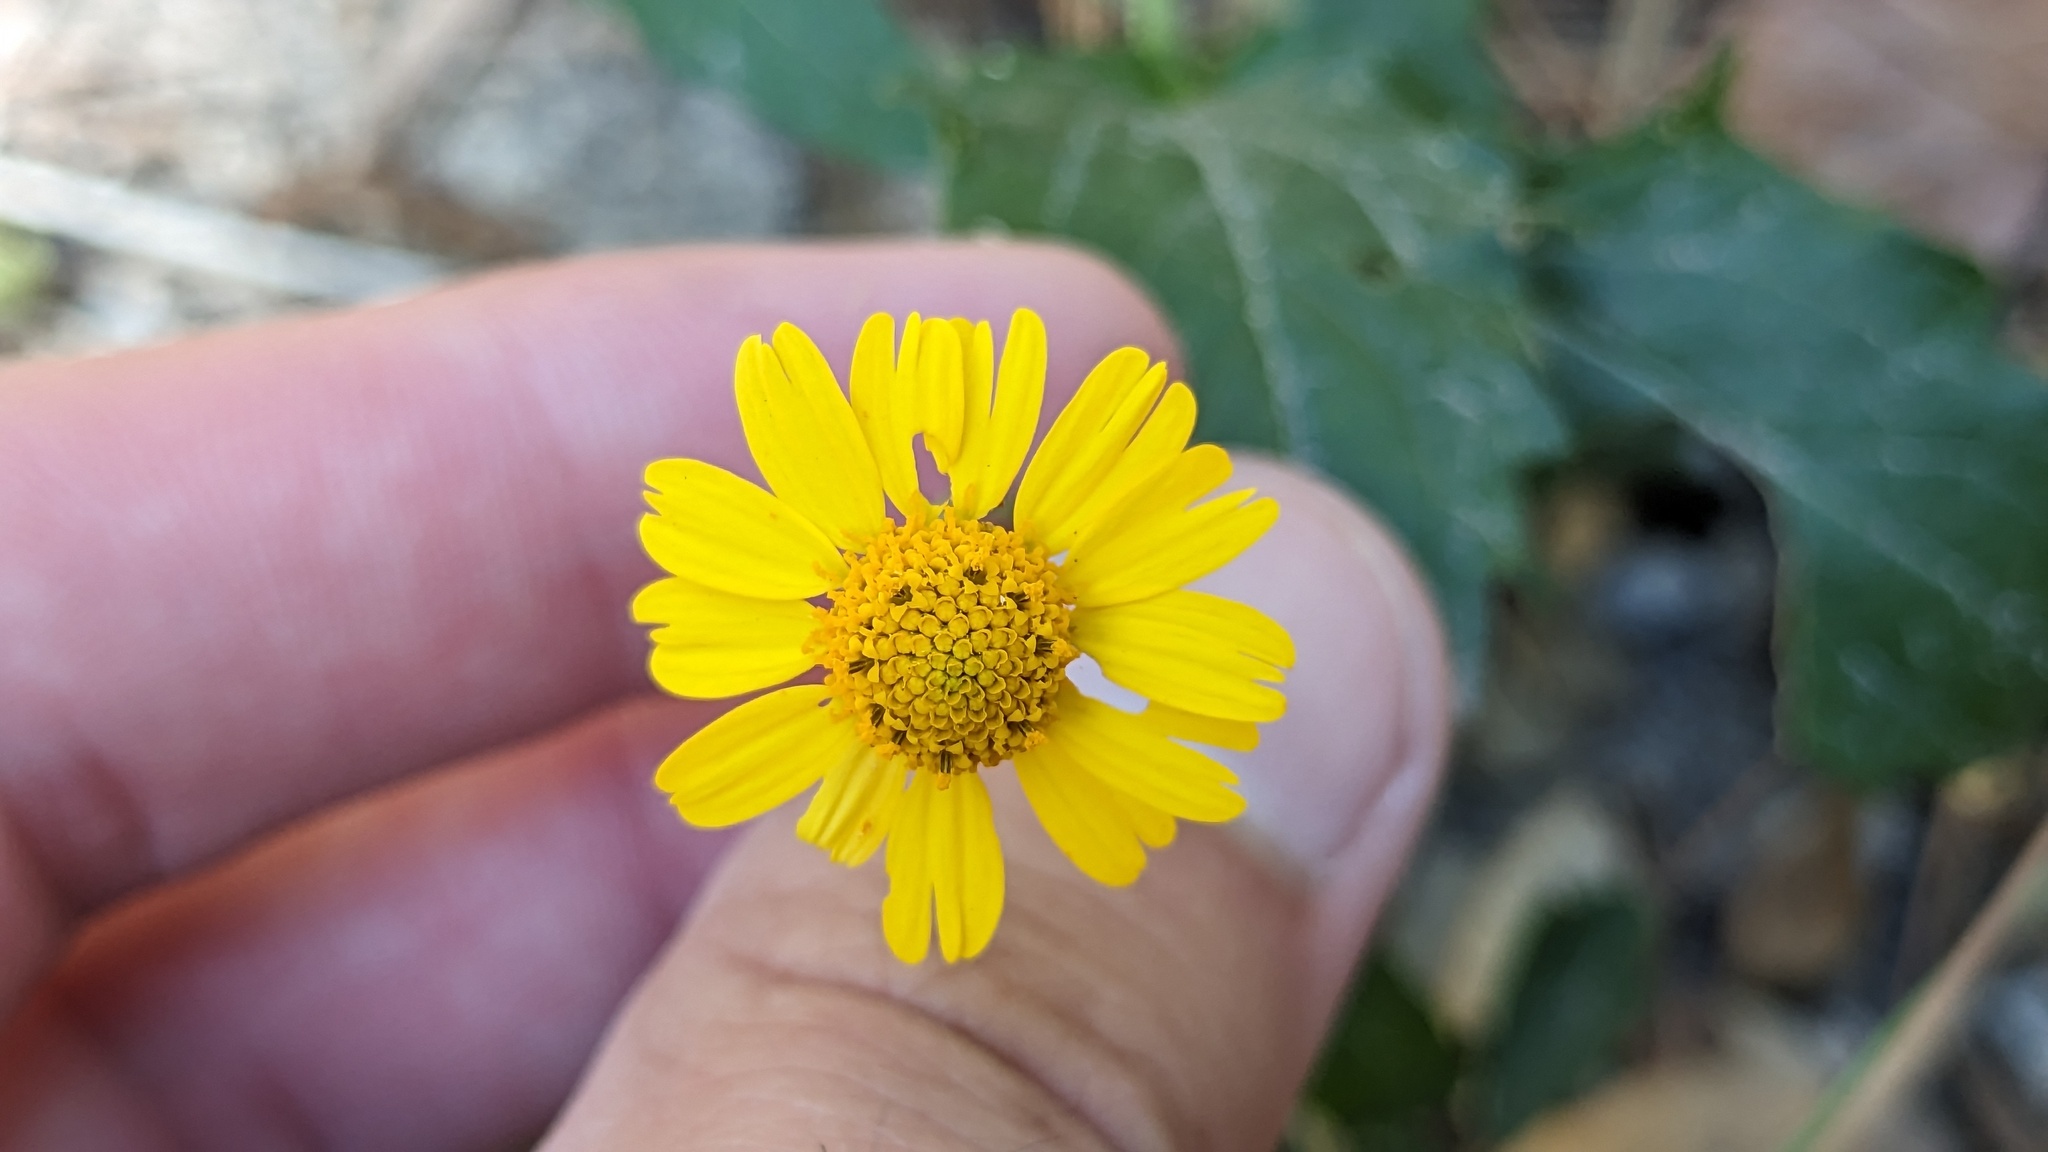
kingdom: Plantae
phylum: Tracheophyta
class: Magnoliopsida
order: Asterales
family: Asteraceae
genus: Acmella
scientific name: Acmella repens
